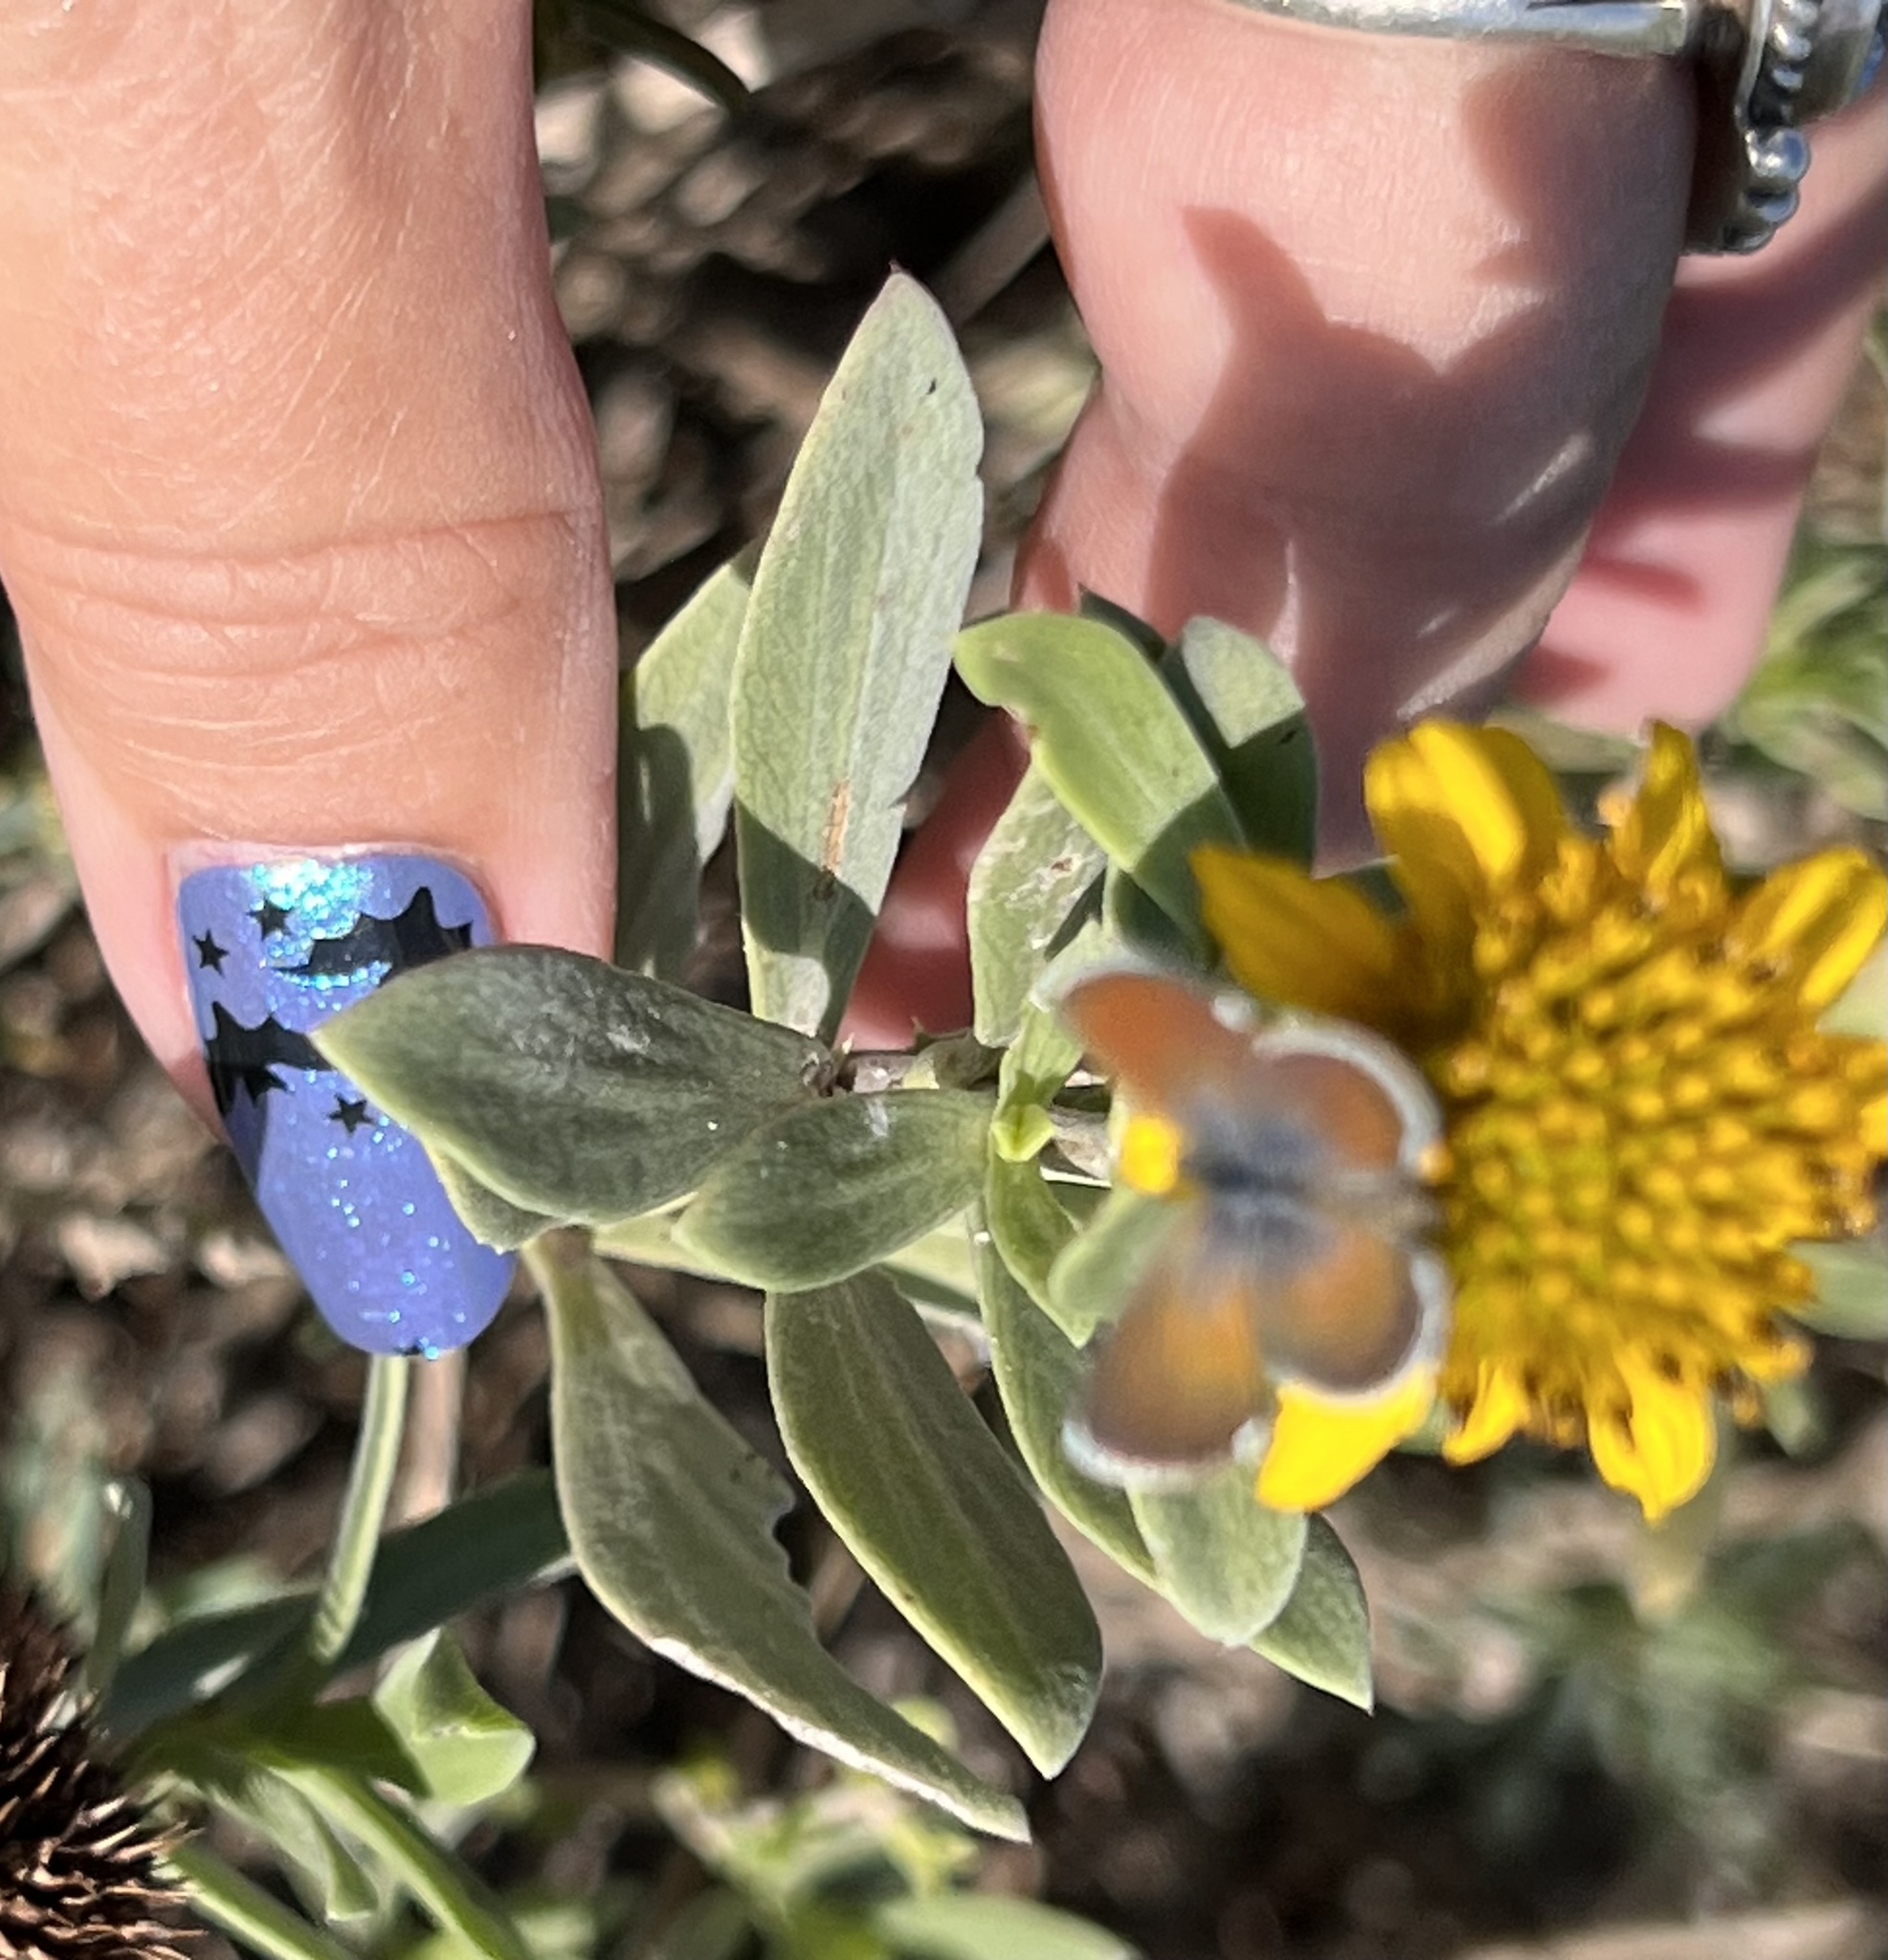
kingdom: Animalia
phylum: Arthropoda
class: Insecta
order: Lepidoptera
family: Lycaenidae
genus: Brephidium
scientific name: Brephidium exilis
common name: Pygmy blue
